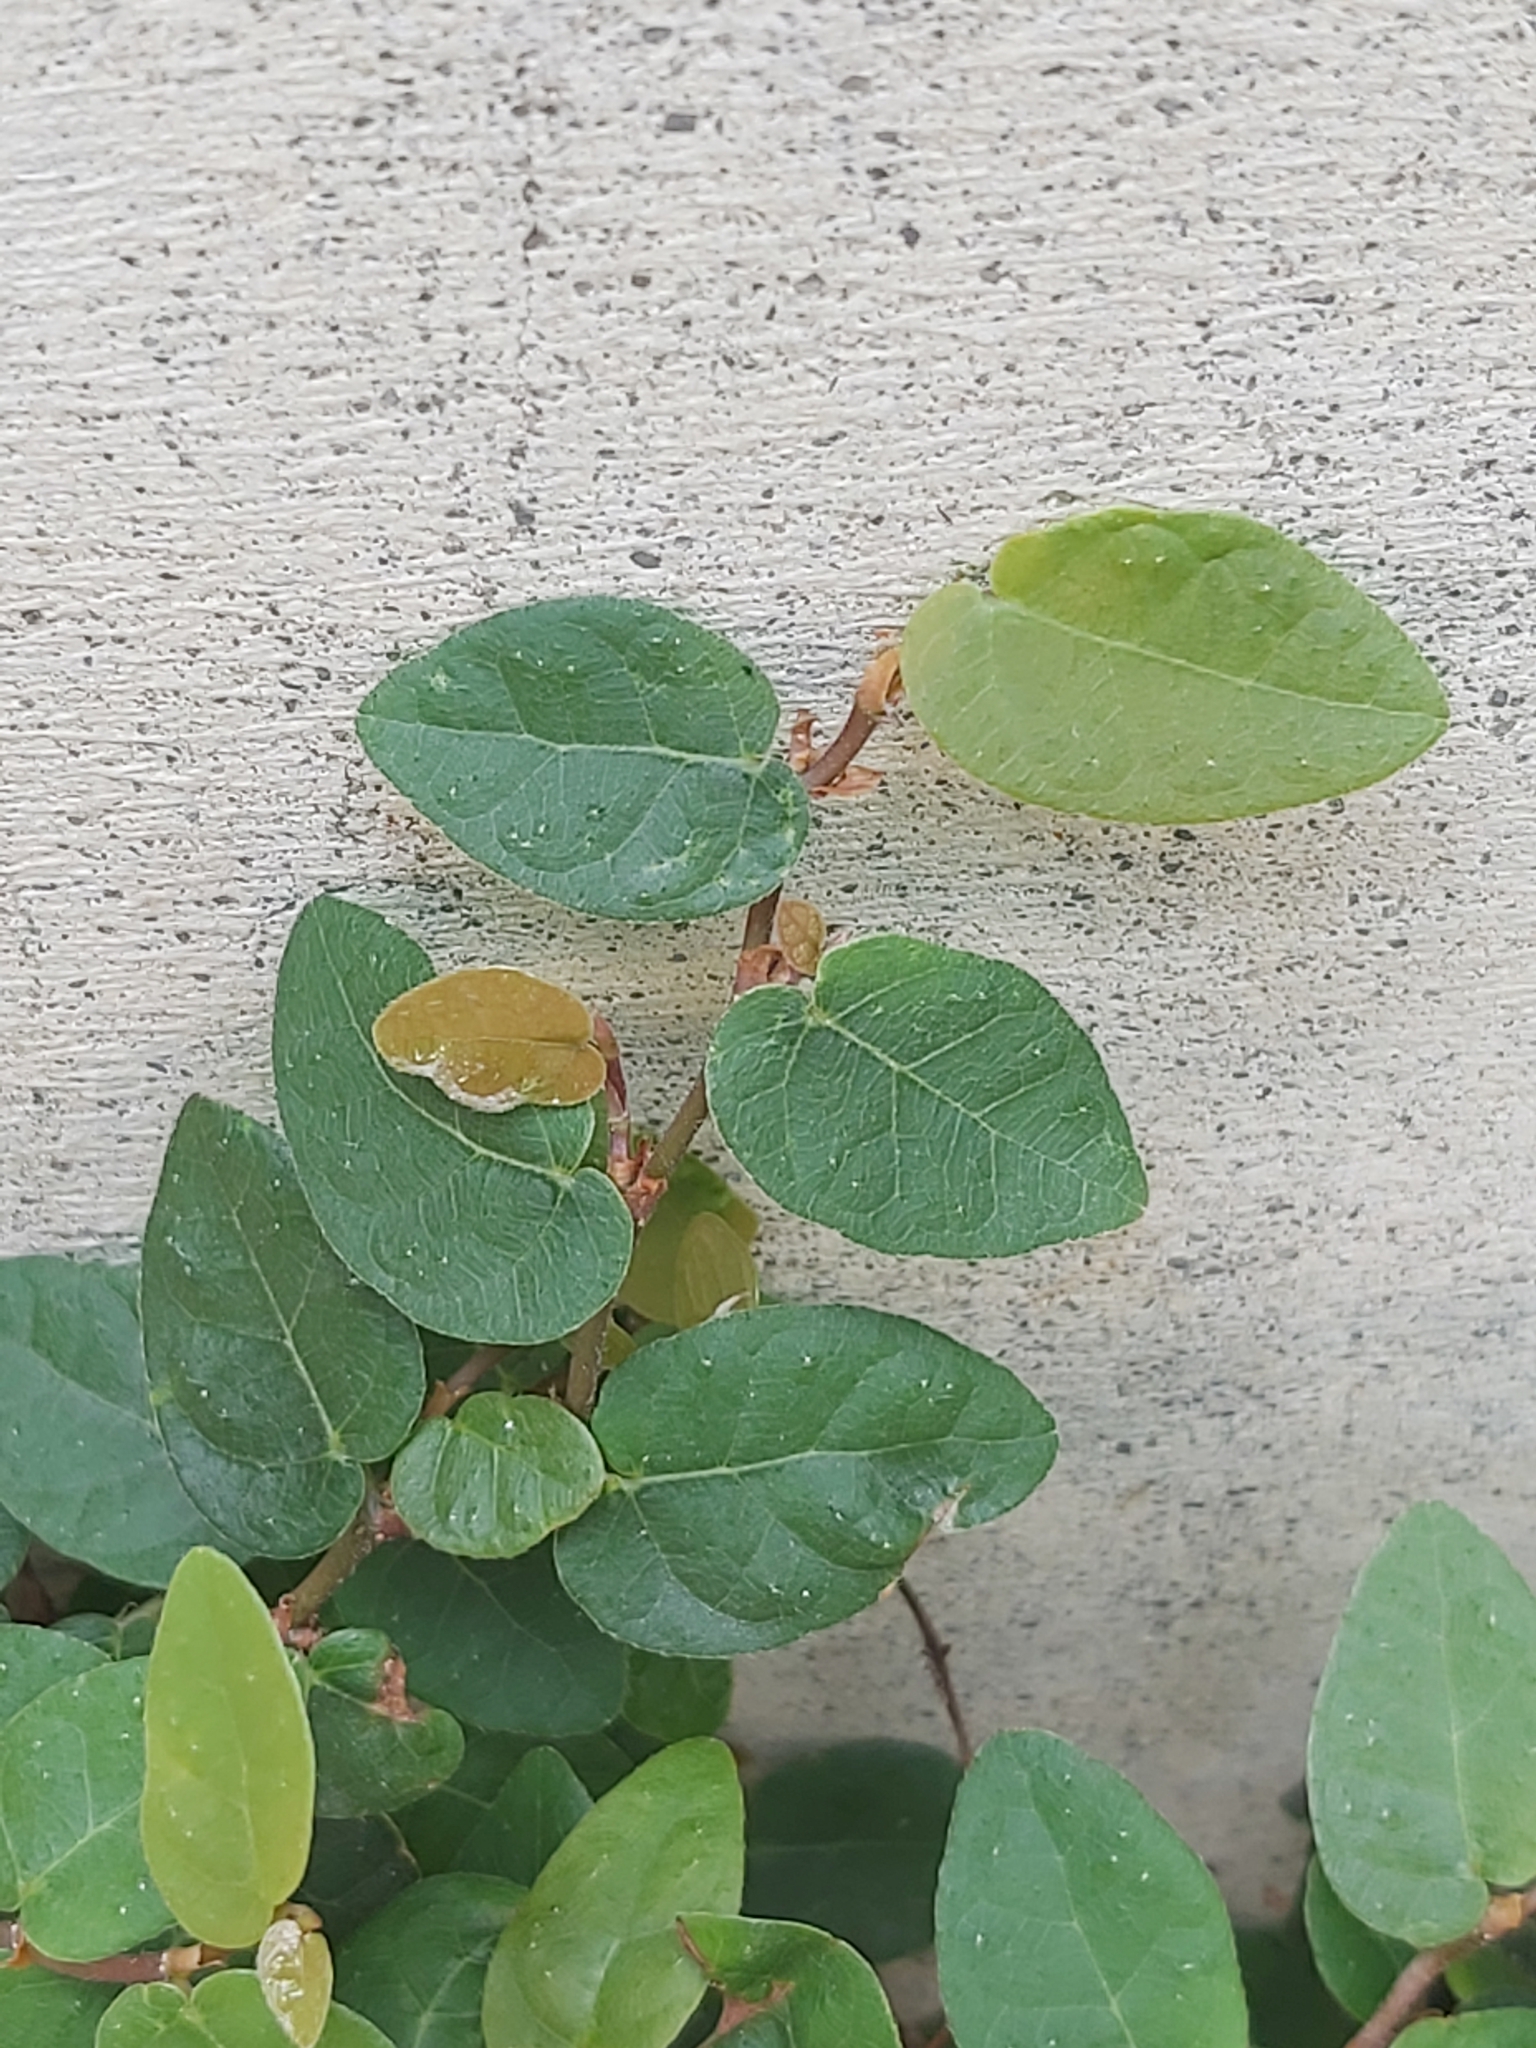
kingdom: Plantae
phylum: Tracheophyta
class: Magnoliopsida
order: Rosales
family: Moraceae
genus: Ficus
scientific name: Ficus pumila
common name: Climbingfig
